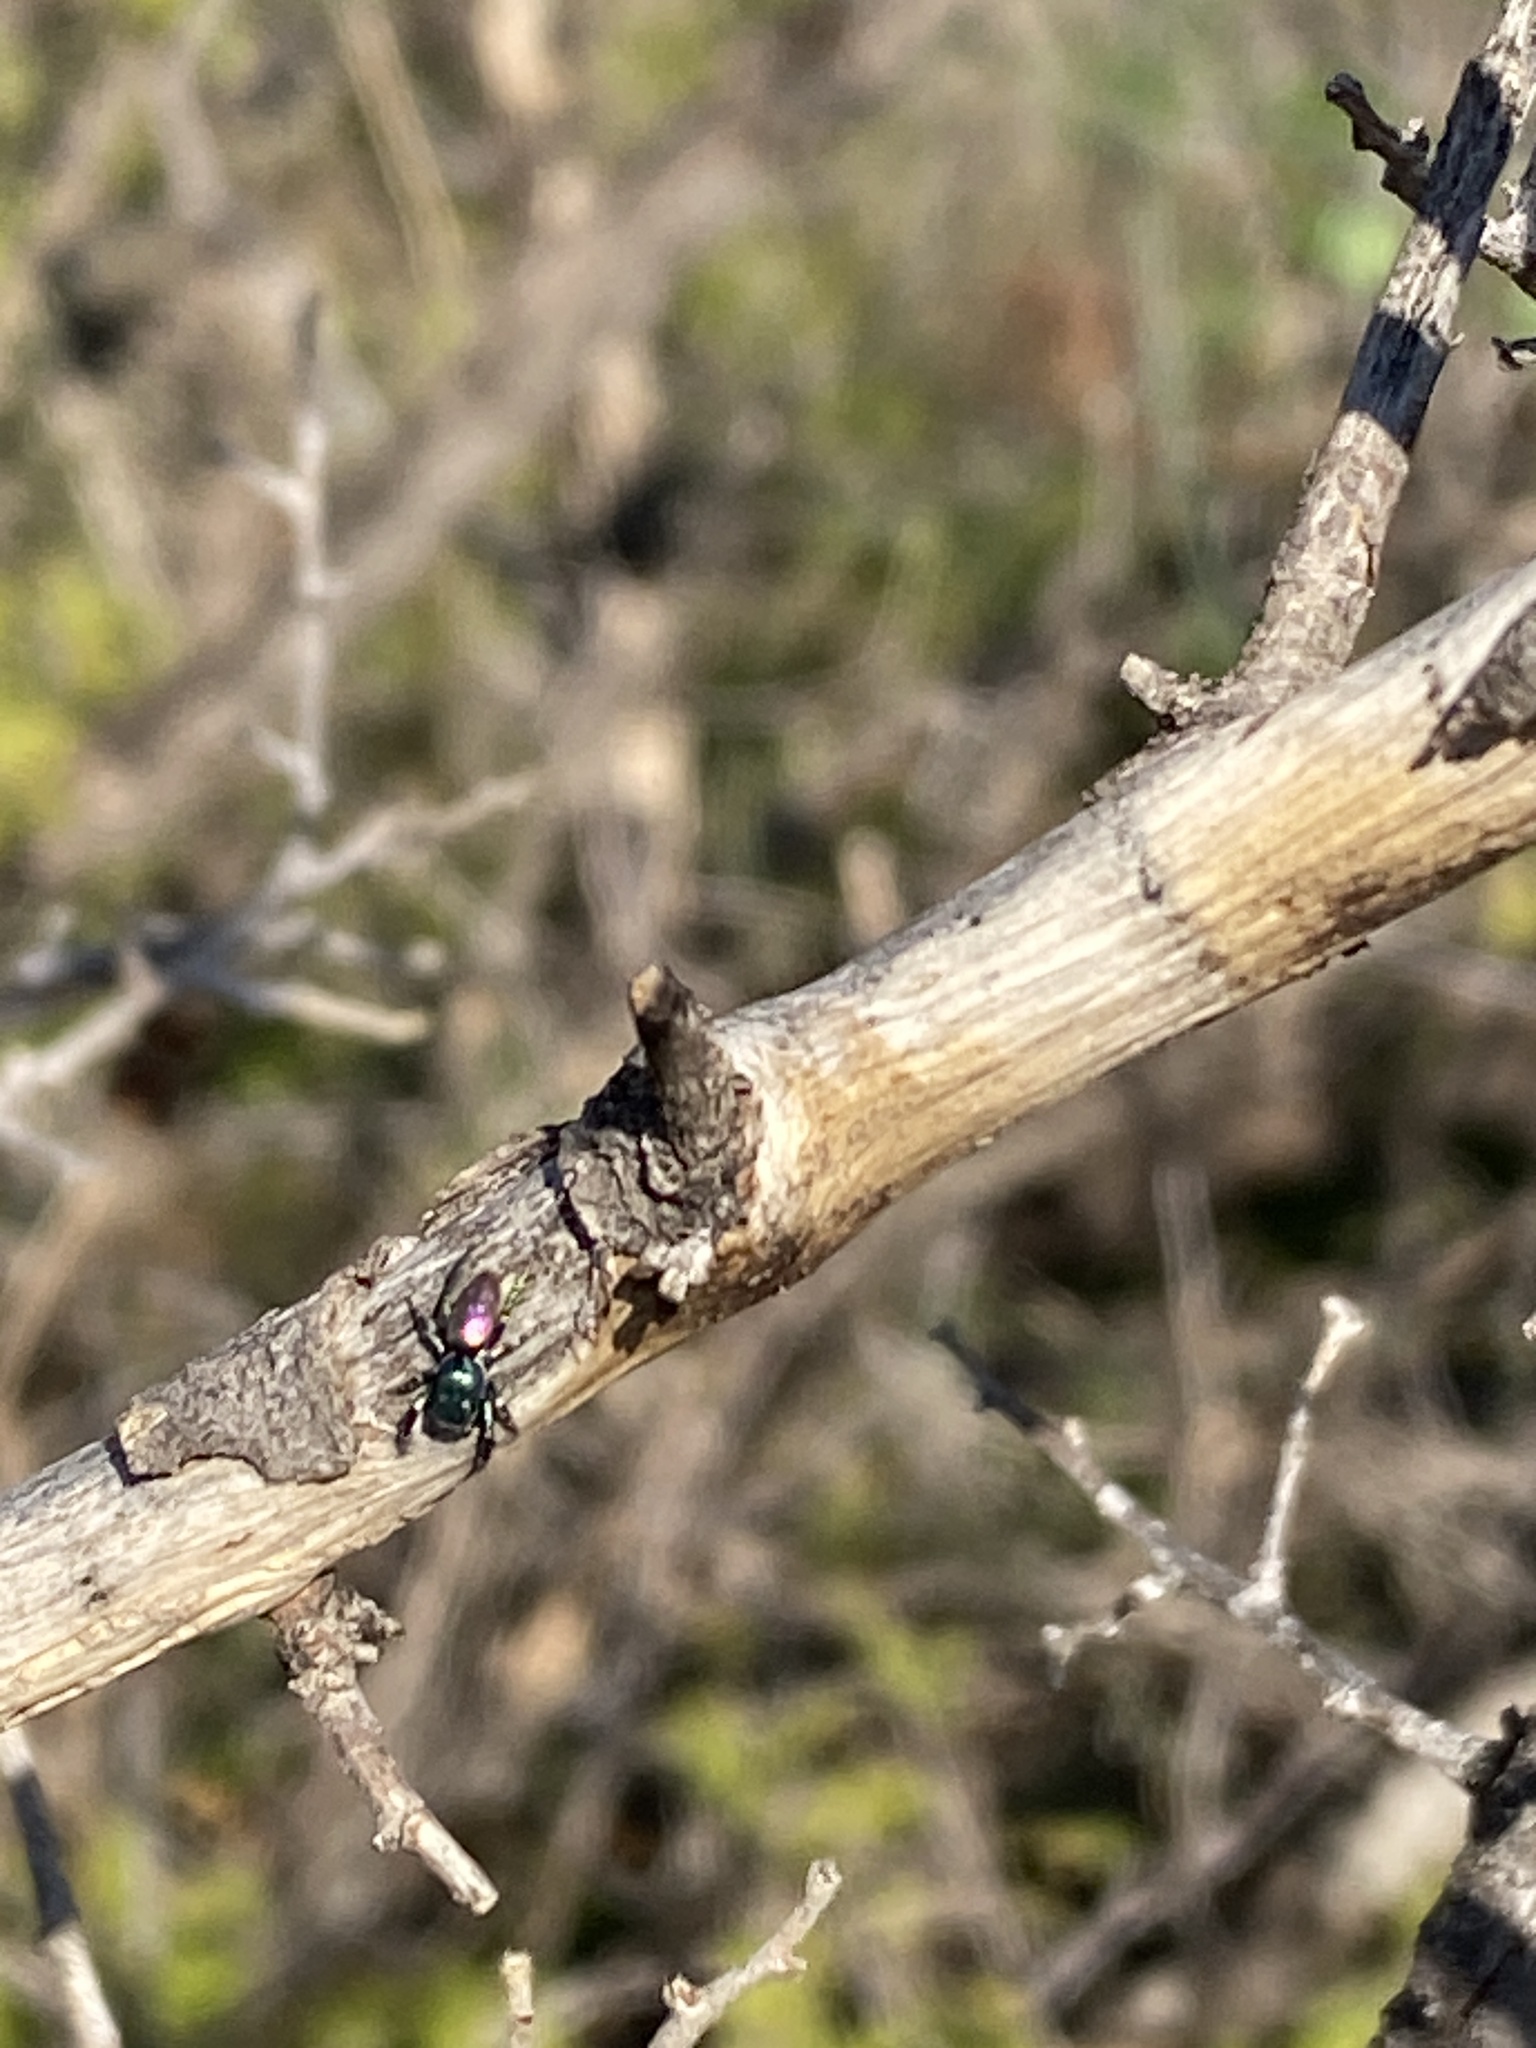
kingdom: Animalia
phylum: Arthropoda
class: Arachnida
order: Araneae
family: Salticidae
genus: Salticus
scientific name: Salticus peckhamae
